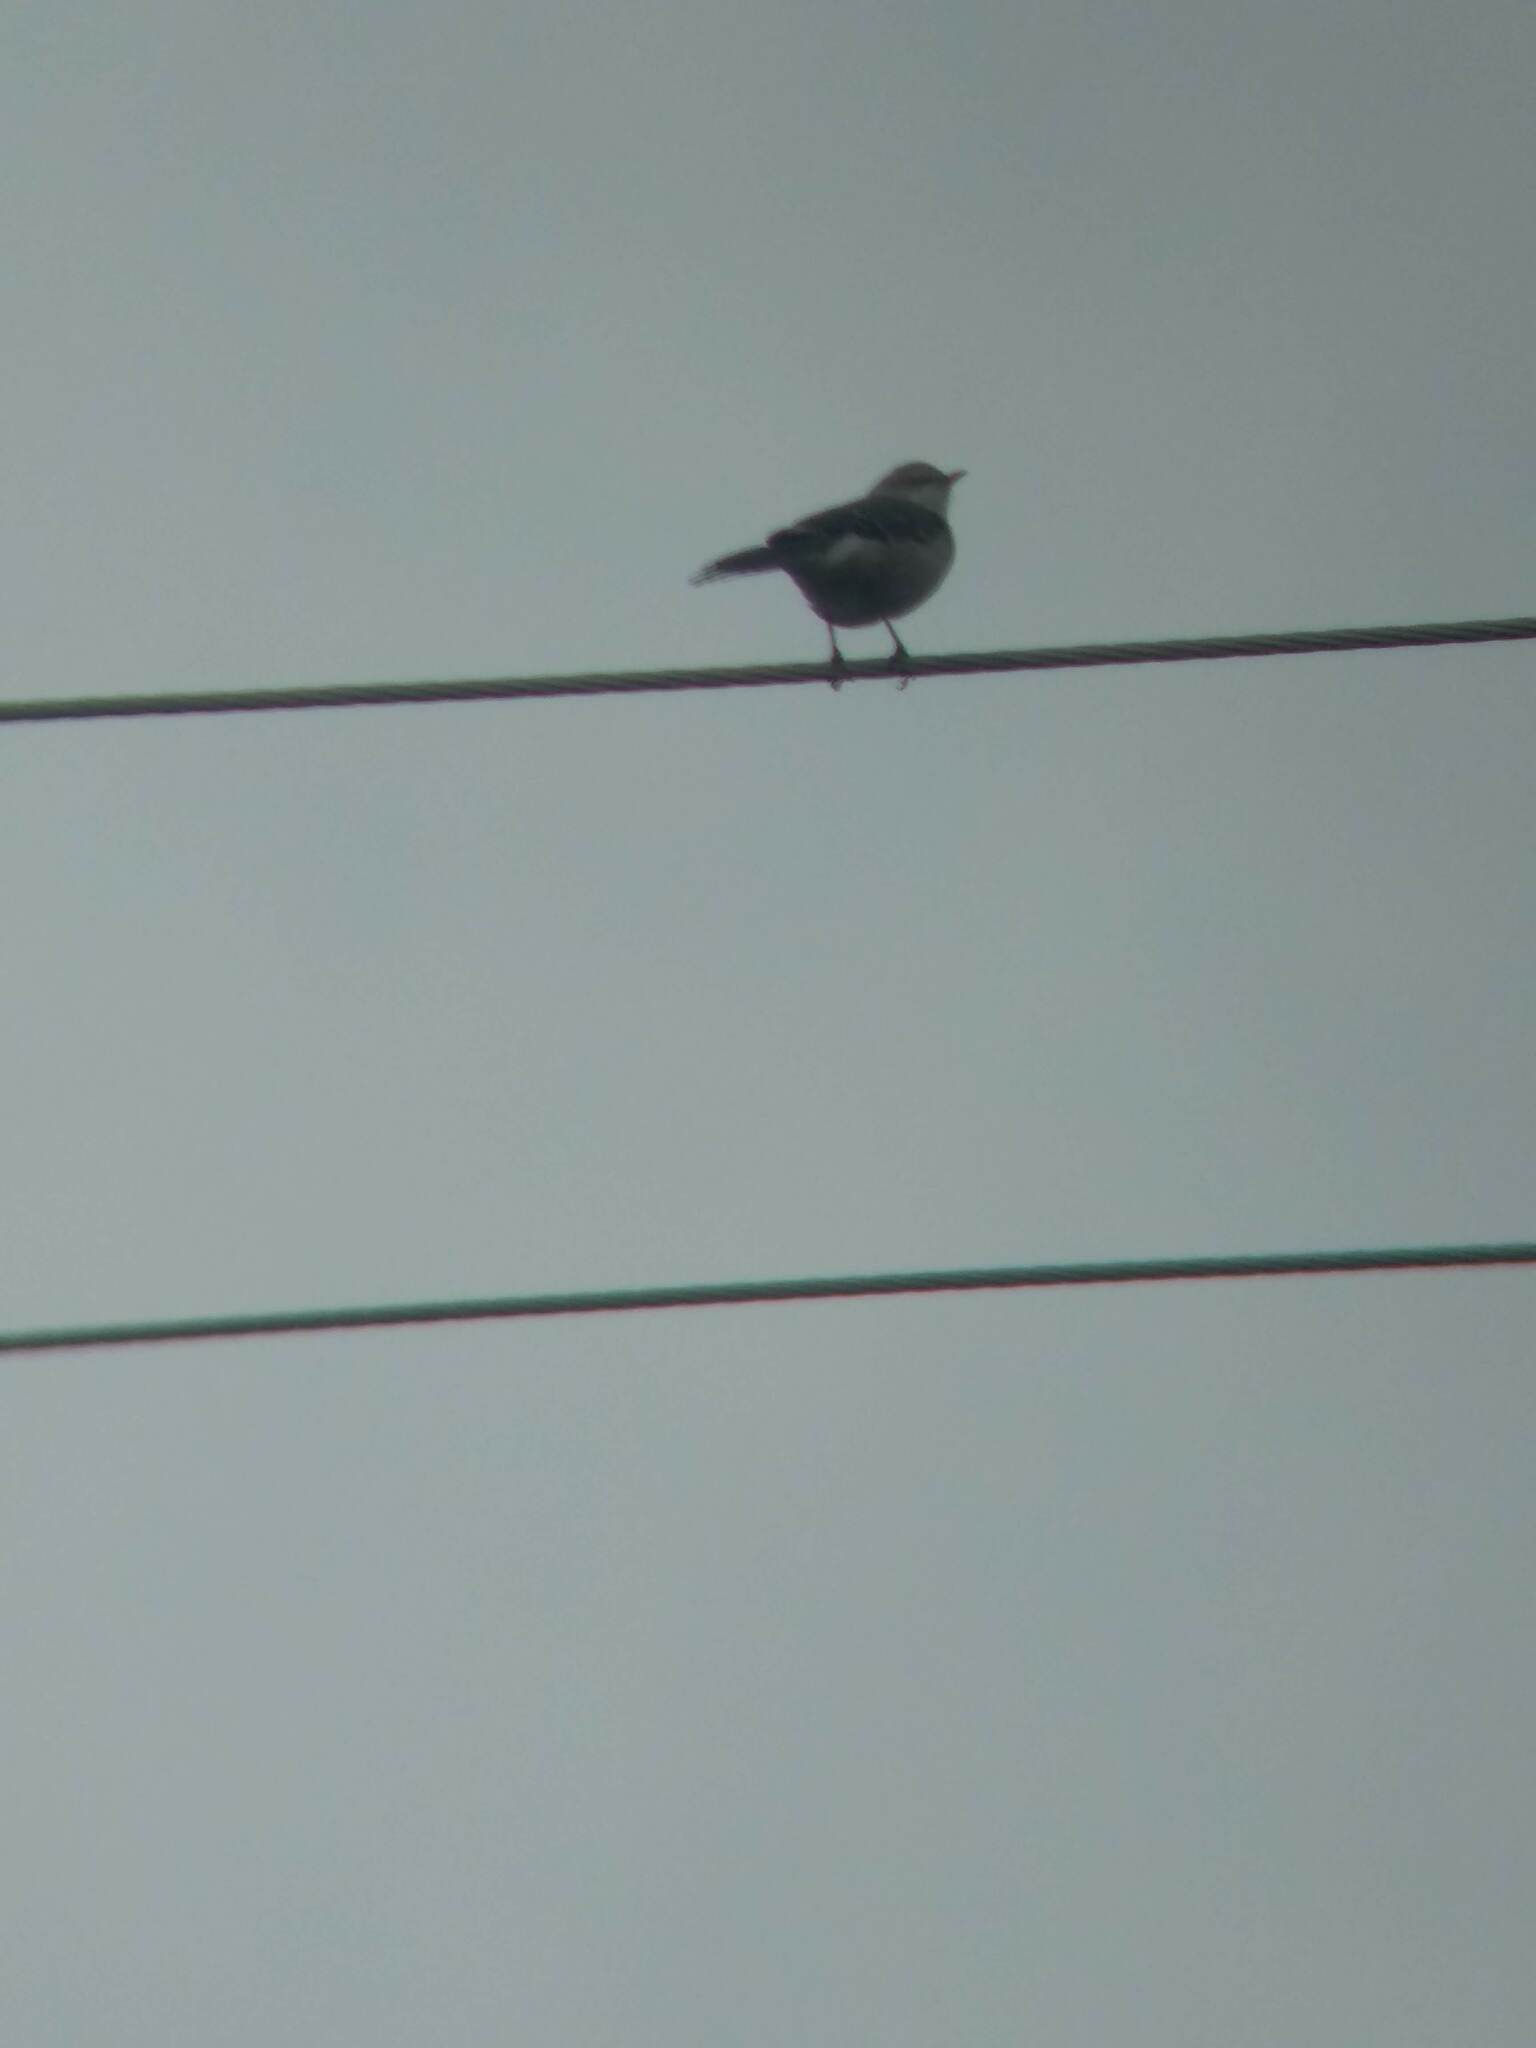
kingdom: Animalia
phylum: Chordata
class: Aves
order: Passeriformes
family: Mimidae
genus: Mimus
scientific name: Mimus polyglottos
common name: Northern mockingbird
